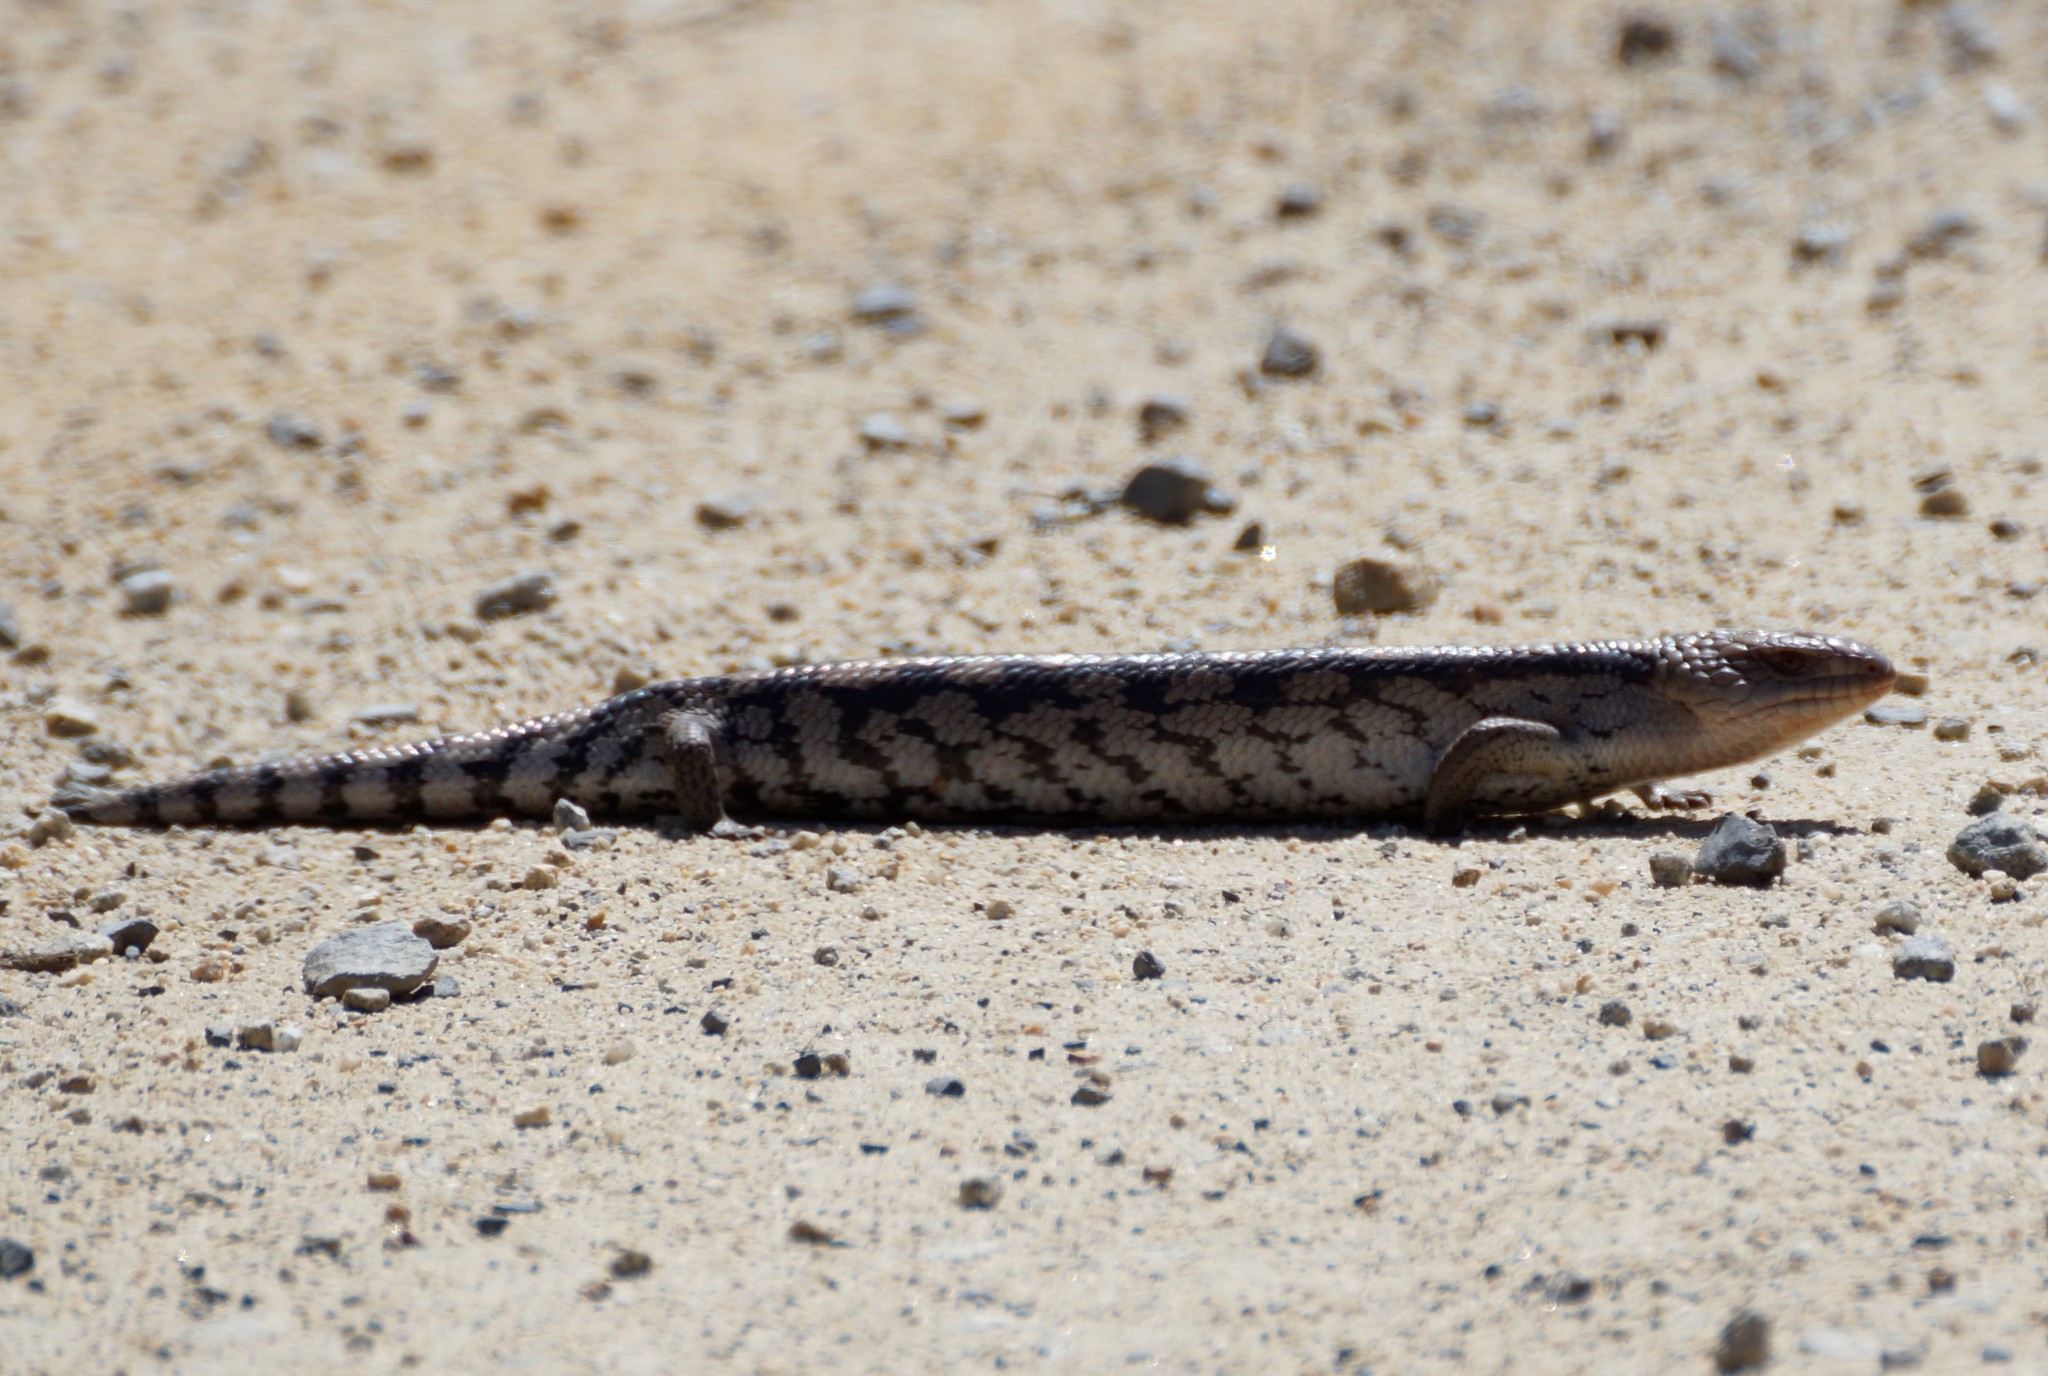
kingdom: Animalia
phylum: Chordata
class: Squamata
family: Scincidae
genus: Tiliqua
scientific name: Tiliqua nigrolutea
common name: Blotched blue-tongued lizard
